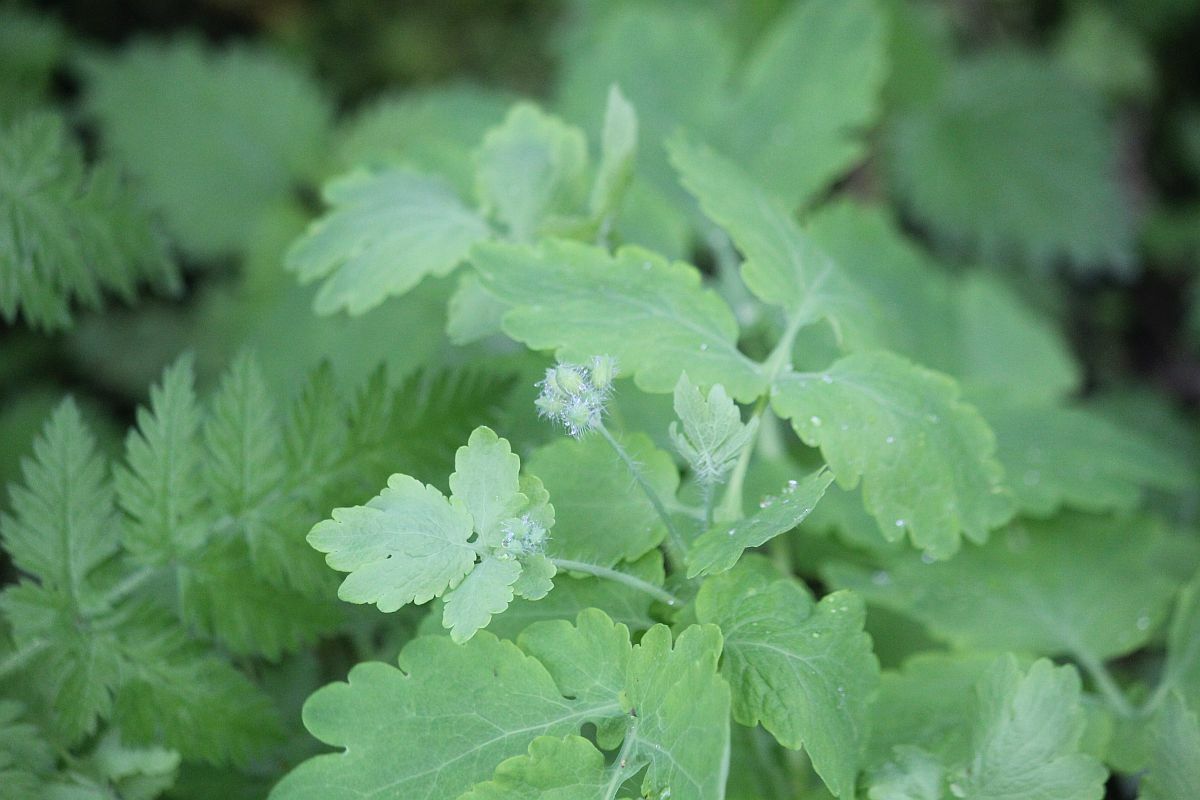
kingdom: Plantae
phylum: Tracheophyta
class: Magnoliopsida
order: Ranunculales
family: Papaveraceae
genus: Chelidonium
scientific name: Chelidonium majus
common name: Greater celandine
